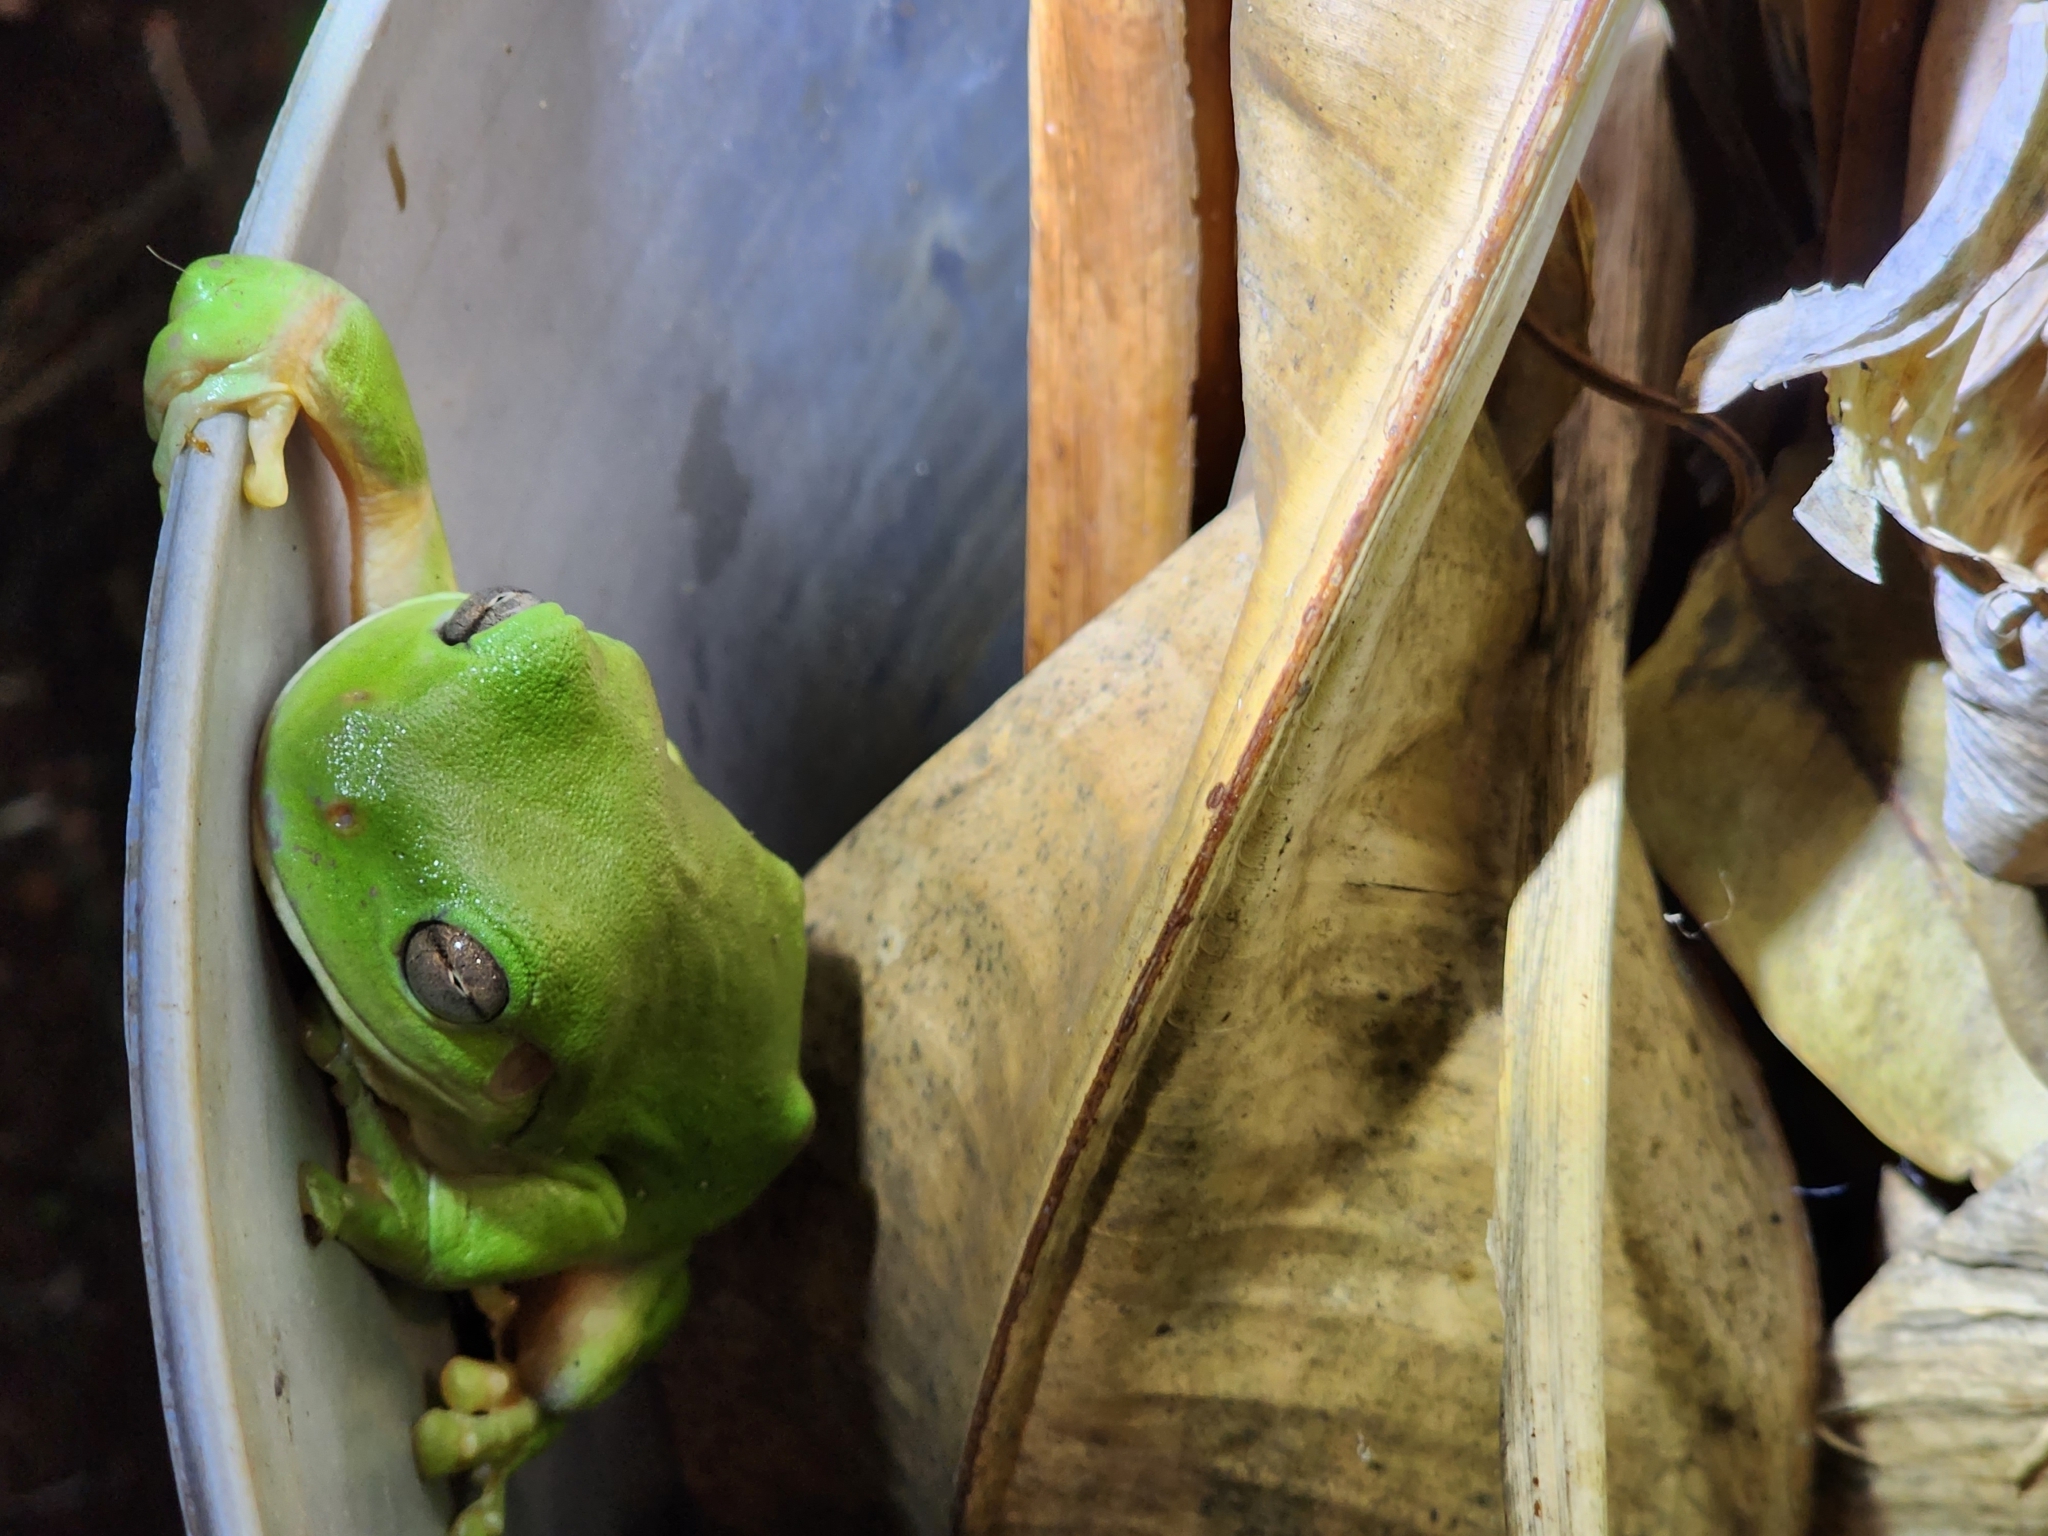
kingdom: Animalia
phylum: Chordata
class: Amphibia
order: Anura
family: Pelodryadidae
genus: Ranoidea
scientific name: Ranoidea caerulea
